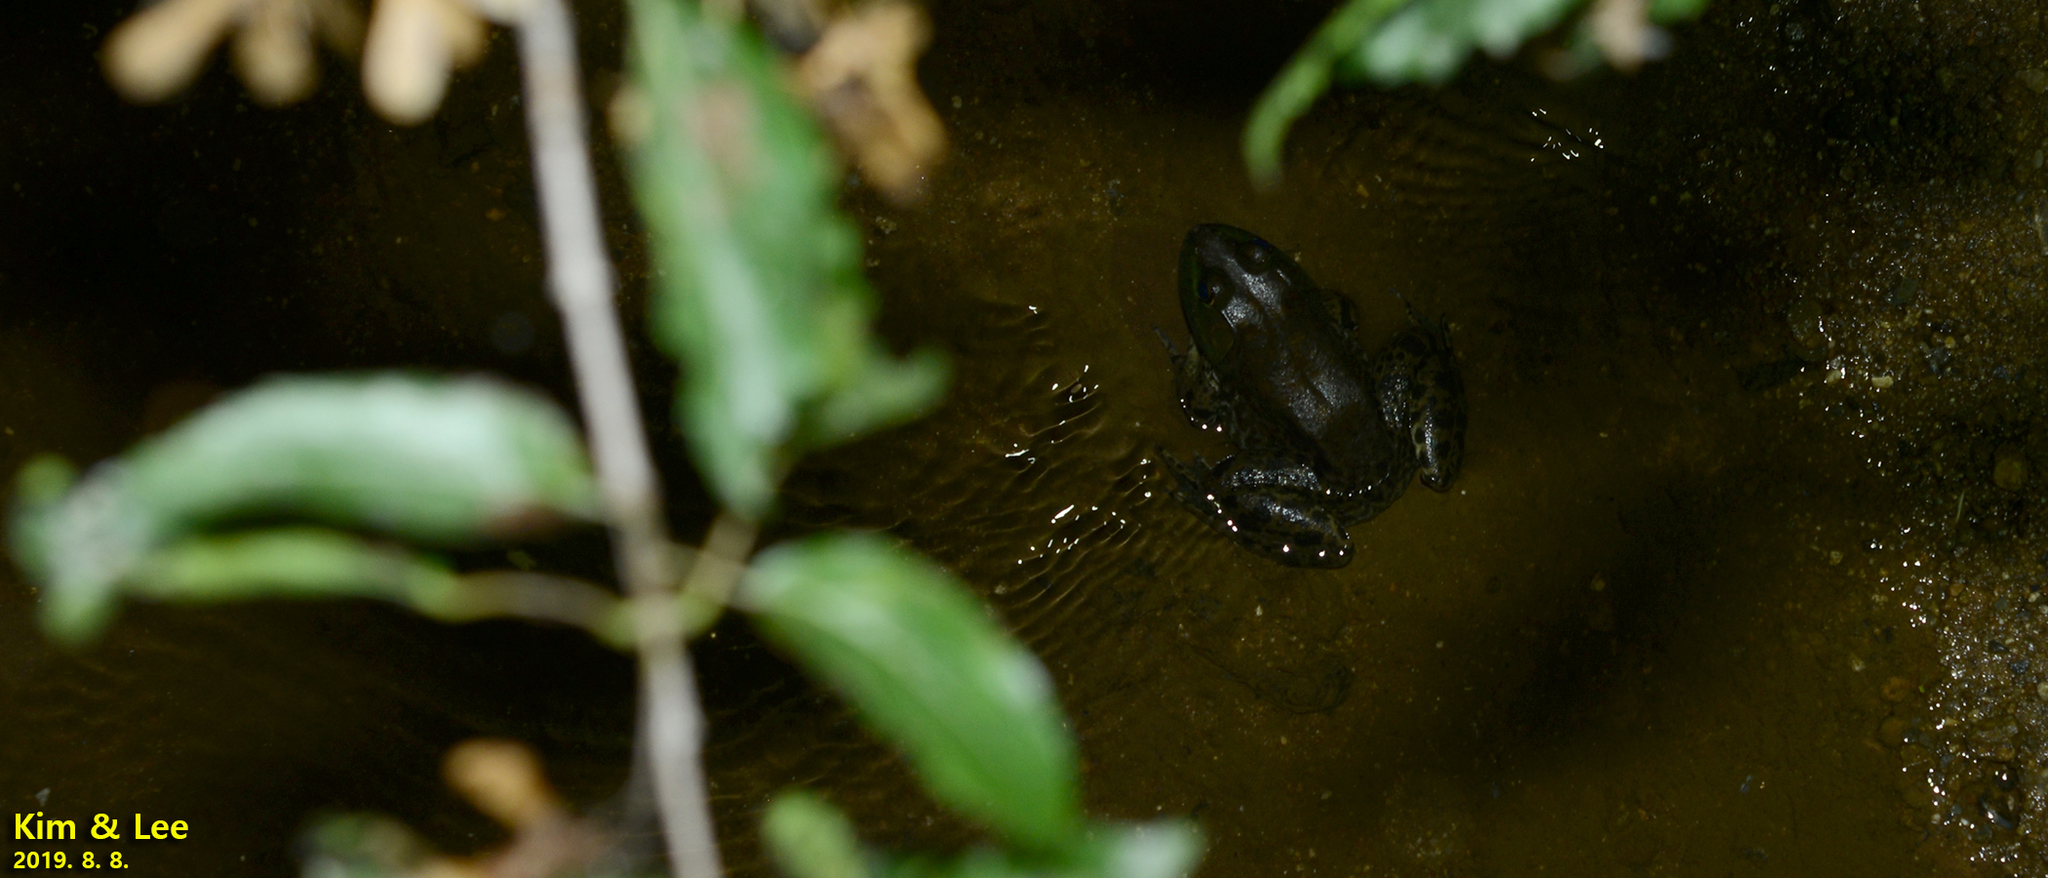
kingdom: Animalia
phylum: Chordata
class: Amphibia
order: Anura
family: Ranidae
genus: Lithobates
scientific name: Lithobates catesbeianus
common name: American bullfrog
